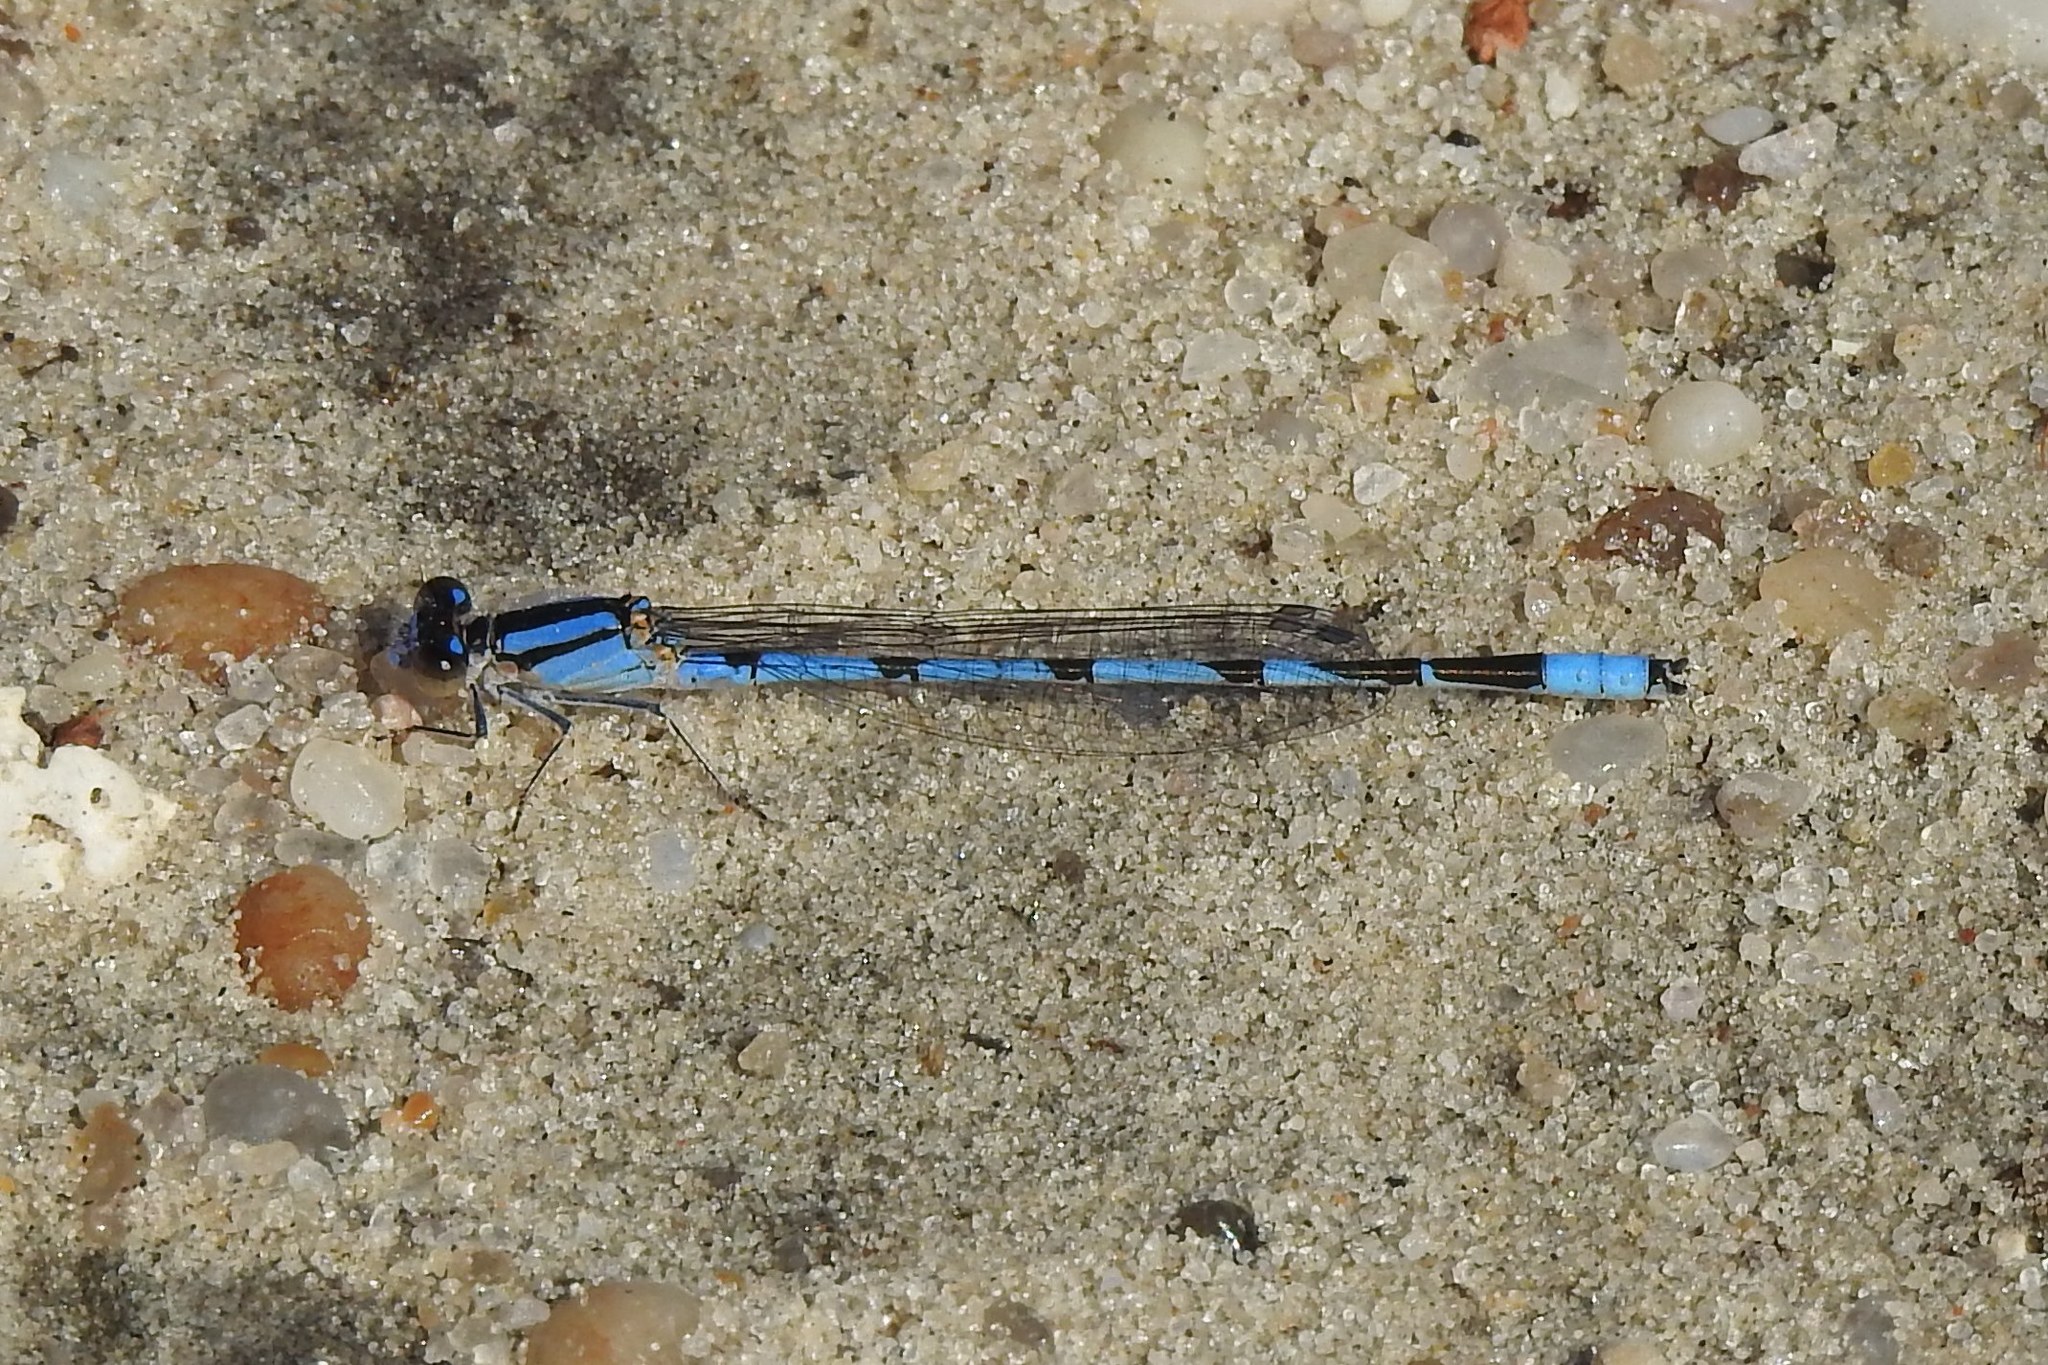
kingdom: Animalia
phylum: Arthropoda
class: Insecta
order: Odonata
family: Coenagrionidae
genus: Enallagma
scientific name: Enallagma civile
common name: Damselfly
